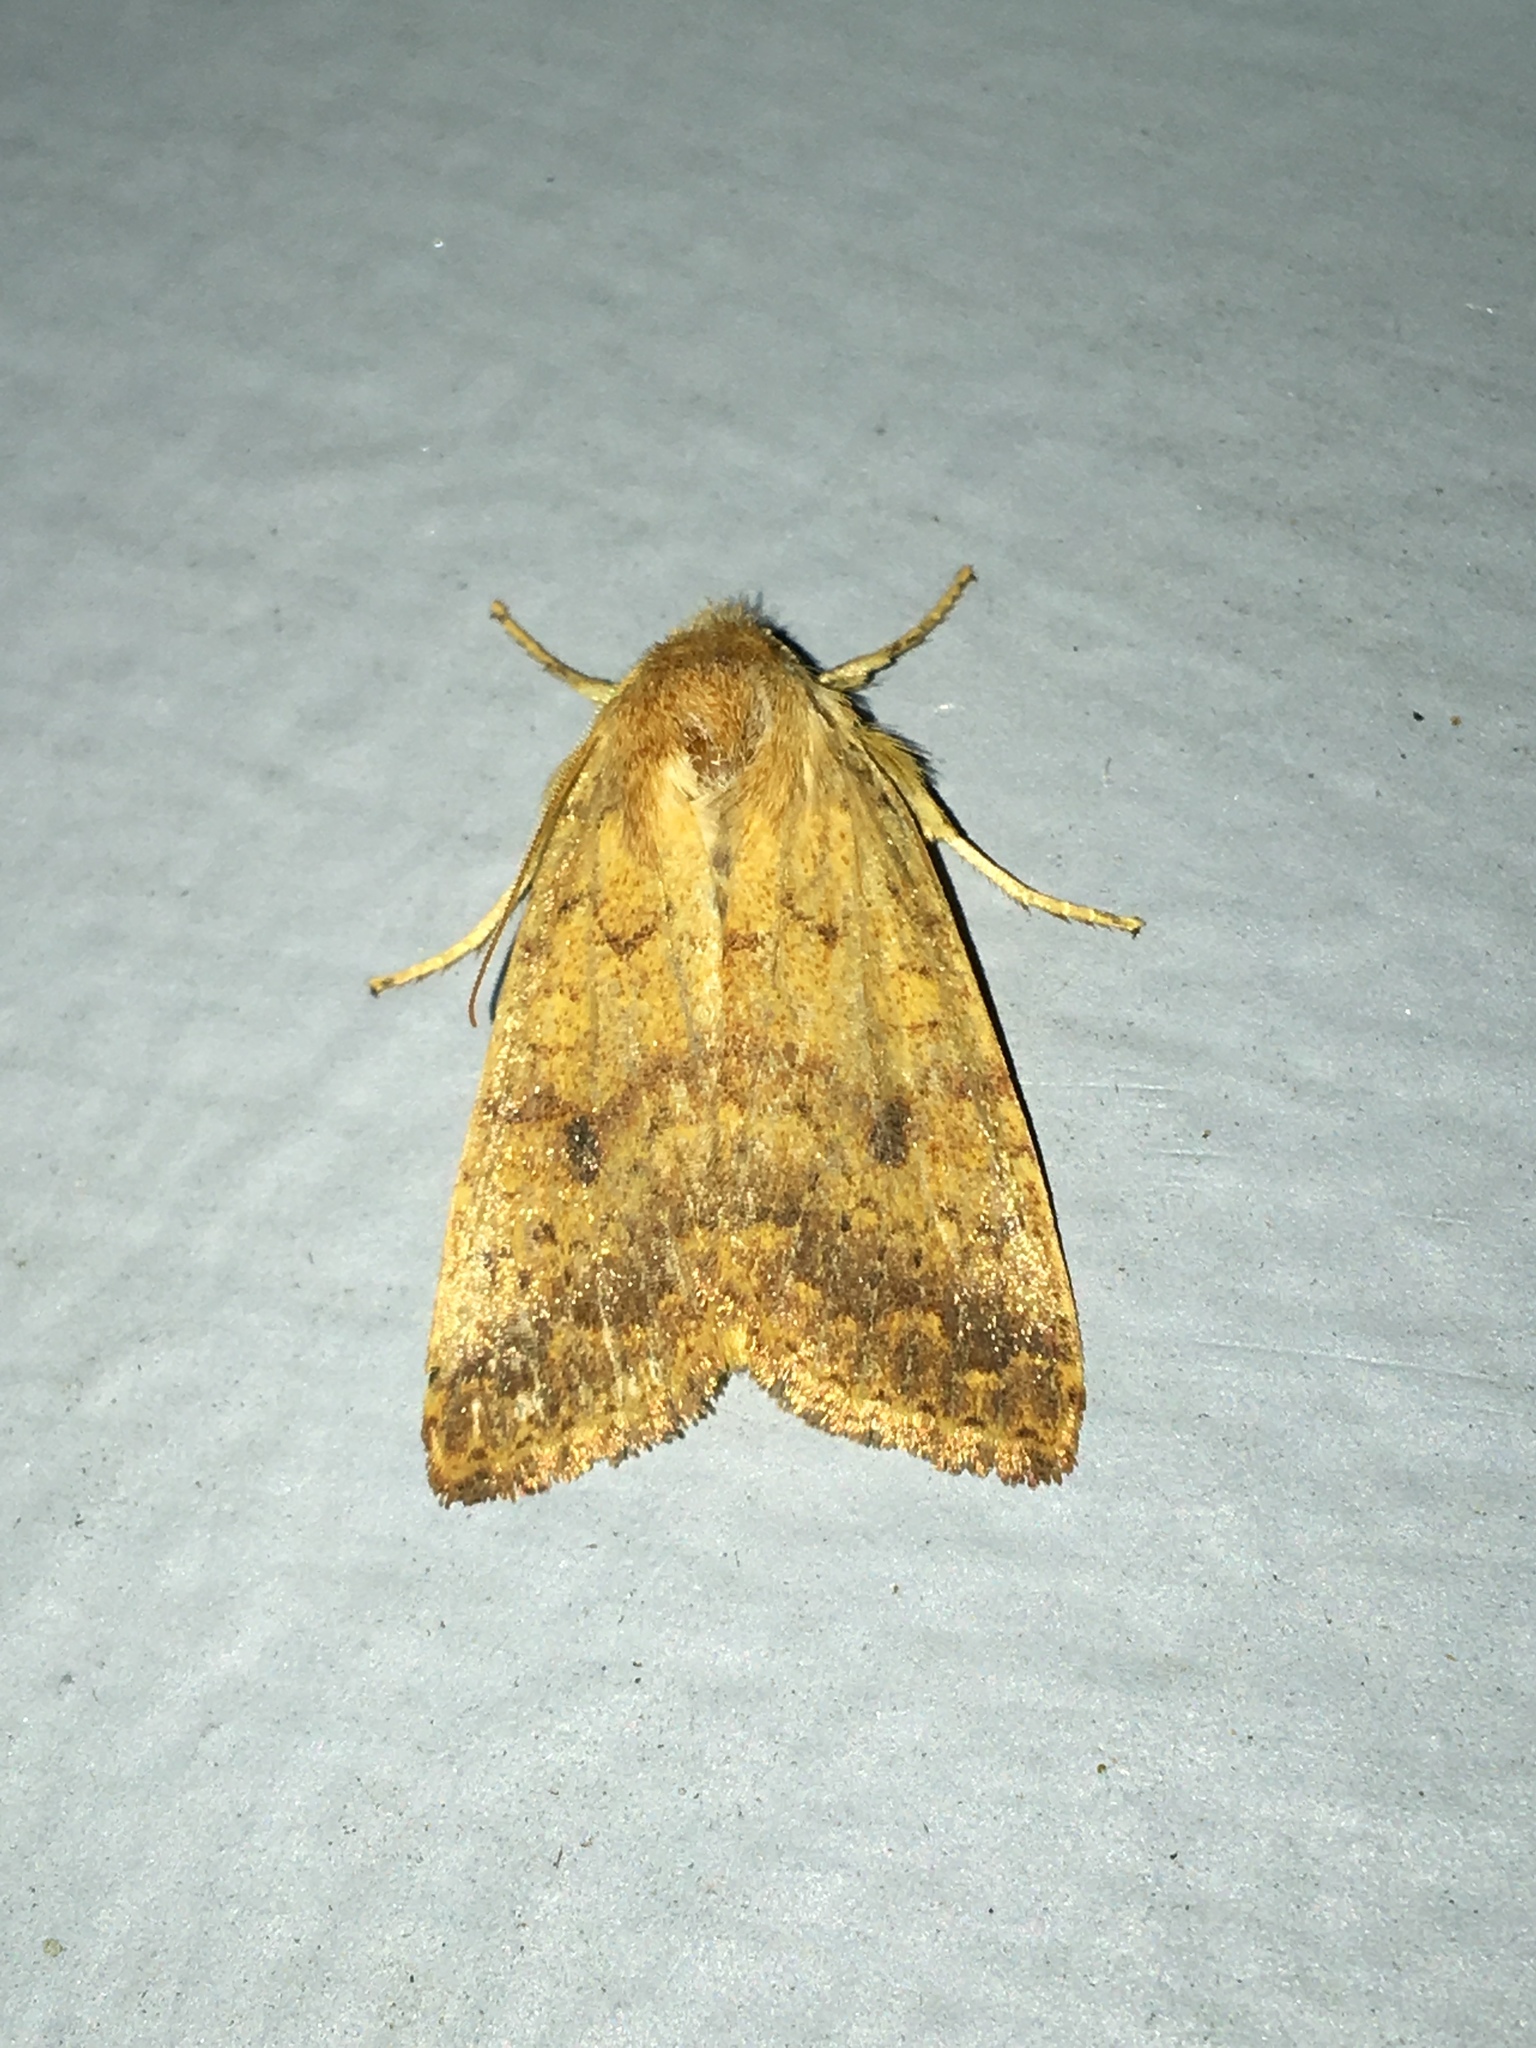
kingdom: Animalia
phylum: Arthropoda
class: Insecta
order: Lepidoptera
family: Noctuidae
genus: Agrochola
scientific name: Agrochola bicolorago
